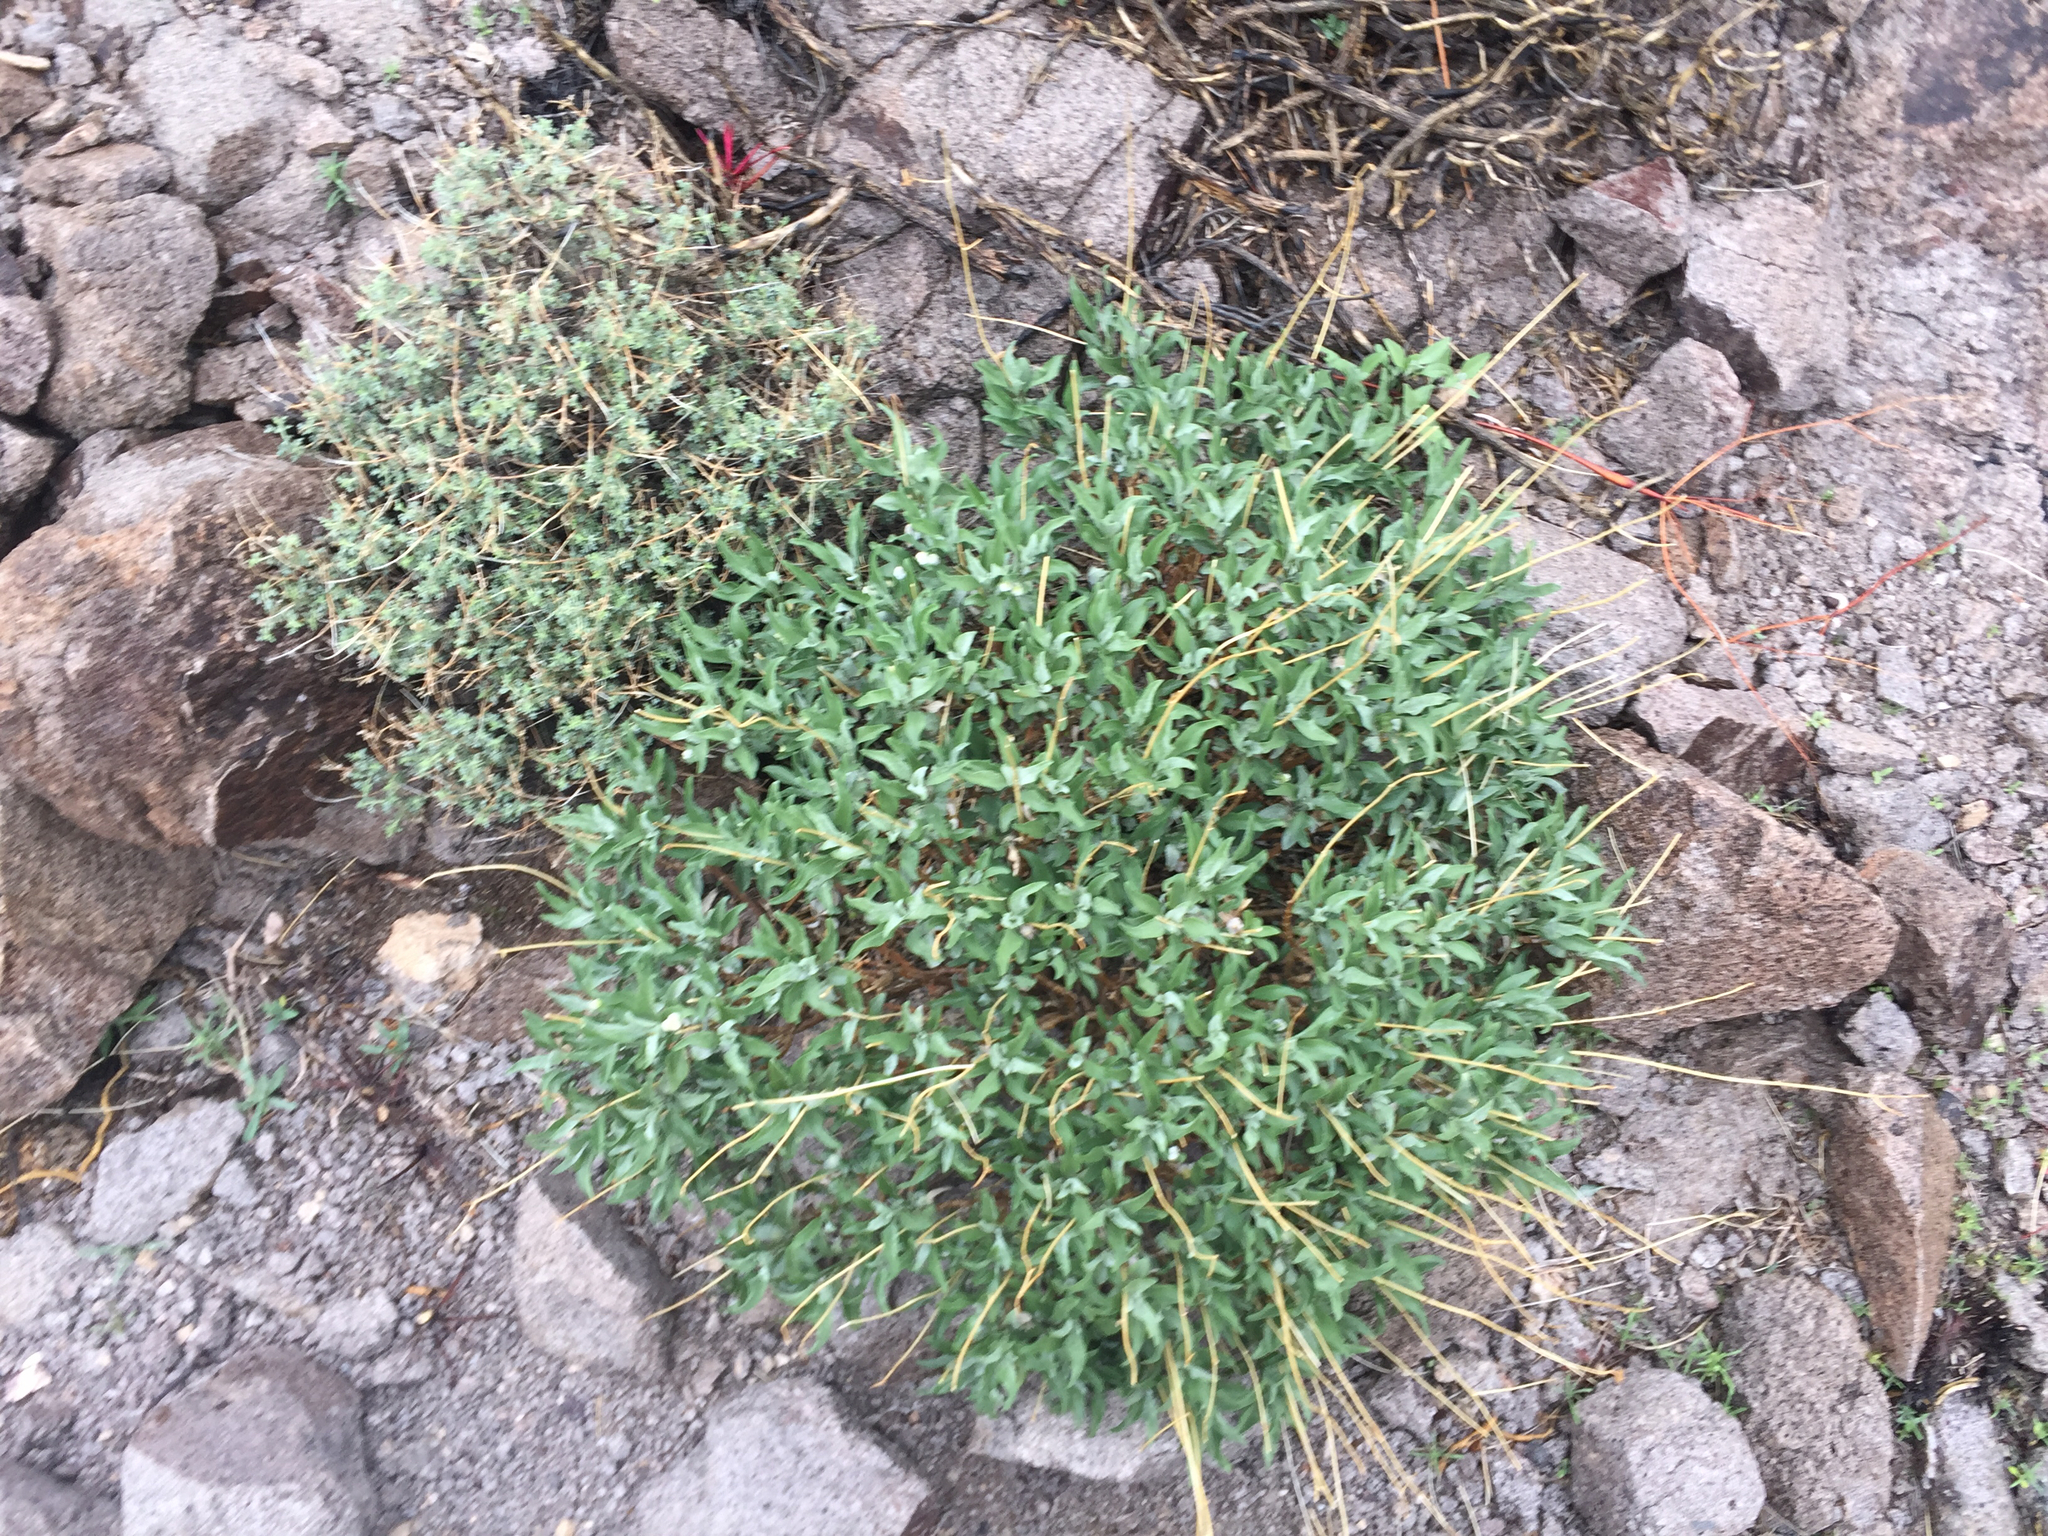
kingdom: Plantae
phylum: Tracheophyta
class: Magnoliopsida
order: Asterales
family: Asteraceae
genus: Encelia
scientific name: Encelia farinosa
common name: Brittlebush
